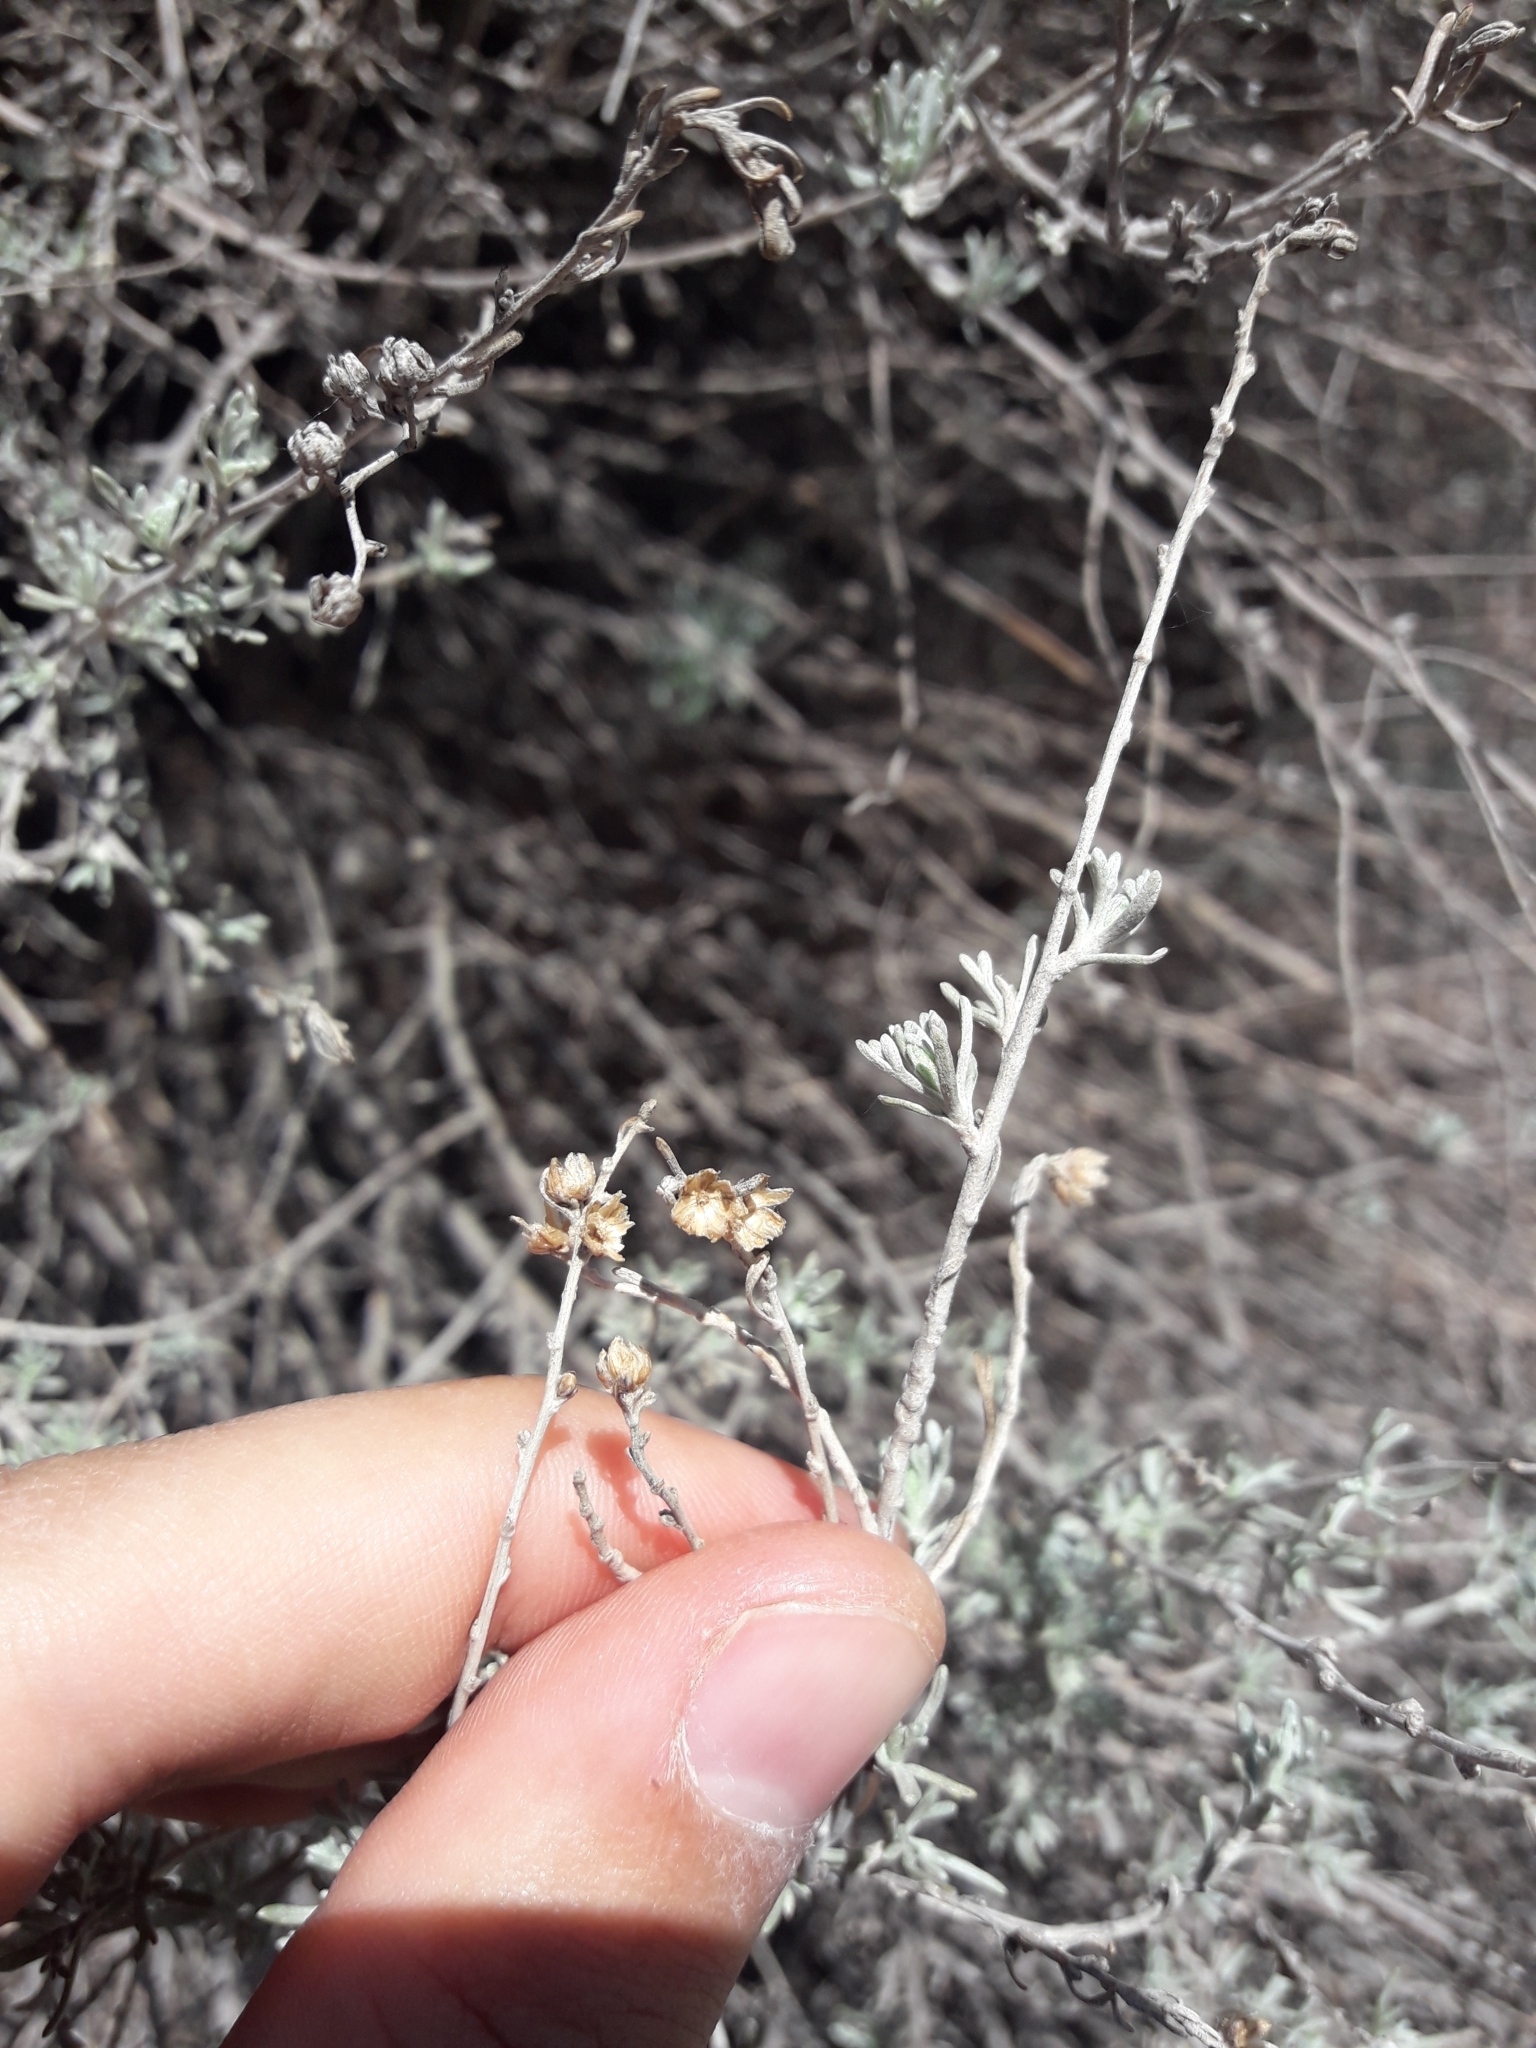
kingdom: Plantae
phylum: Tracheophyta
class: Magnoliopsida
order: Asterales
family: Asteraceae
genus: Artemisia
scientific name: Artemisia mendozana
